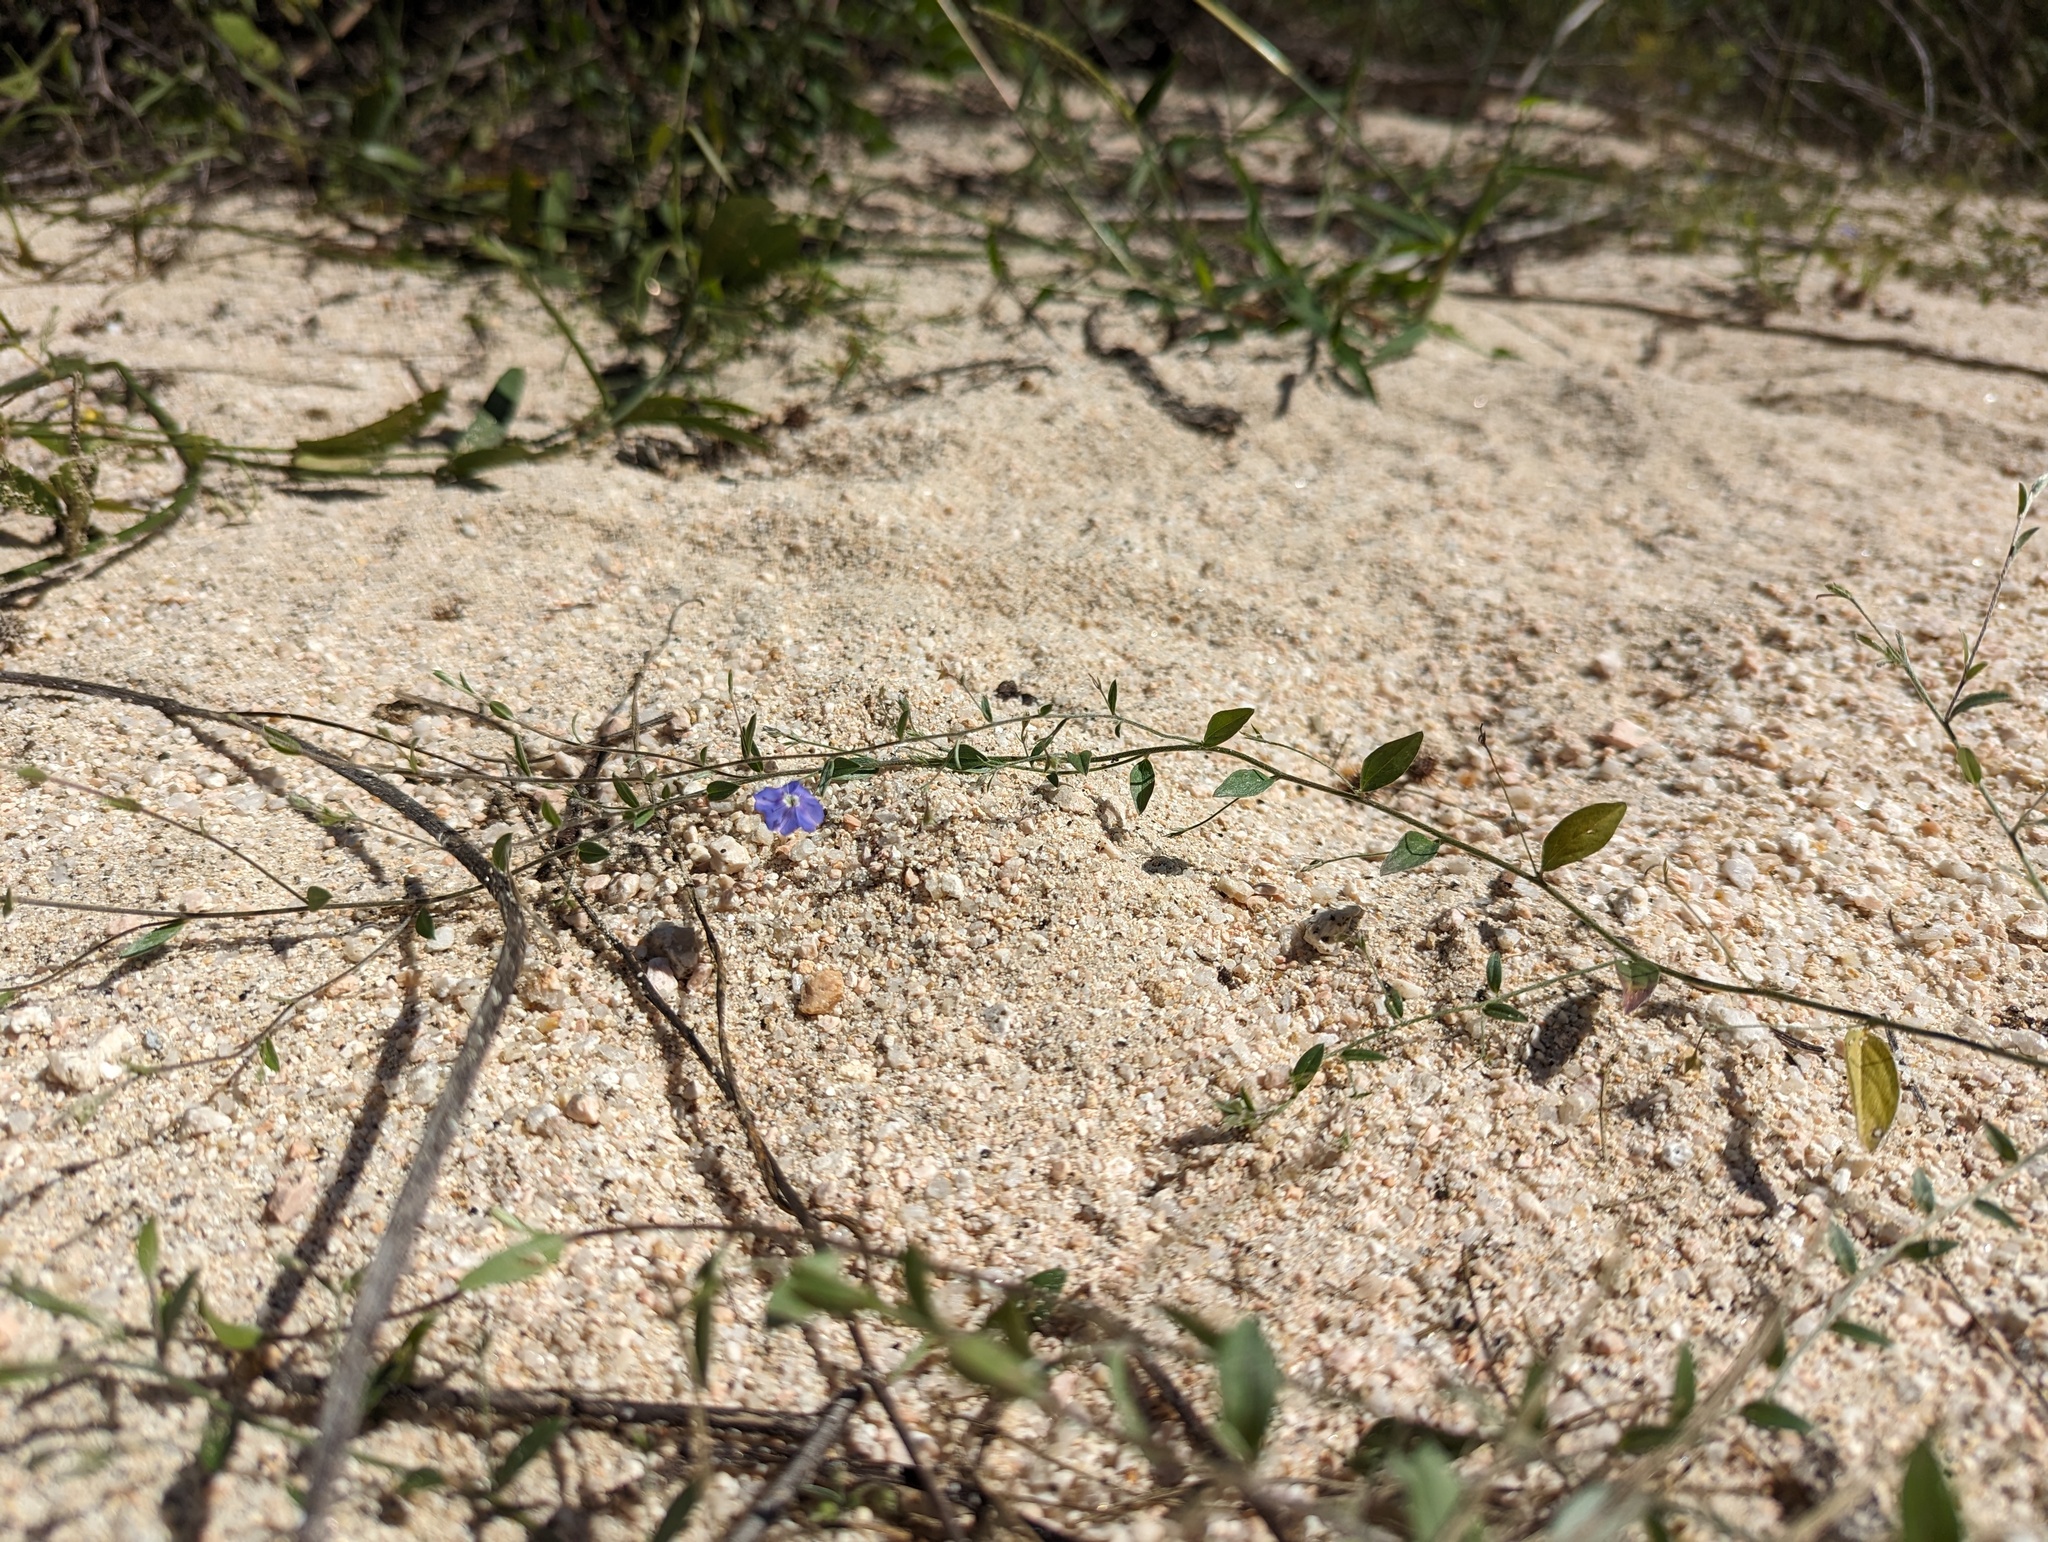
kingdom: Plantae
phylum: Tracheophyta
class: Magnoliopsida
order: Solanales
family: Convolvulaceae
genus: Evolvulus
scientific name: Evolvulus alsinoides
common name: Slender dwarf morning-glory
